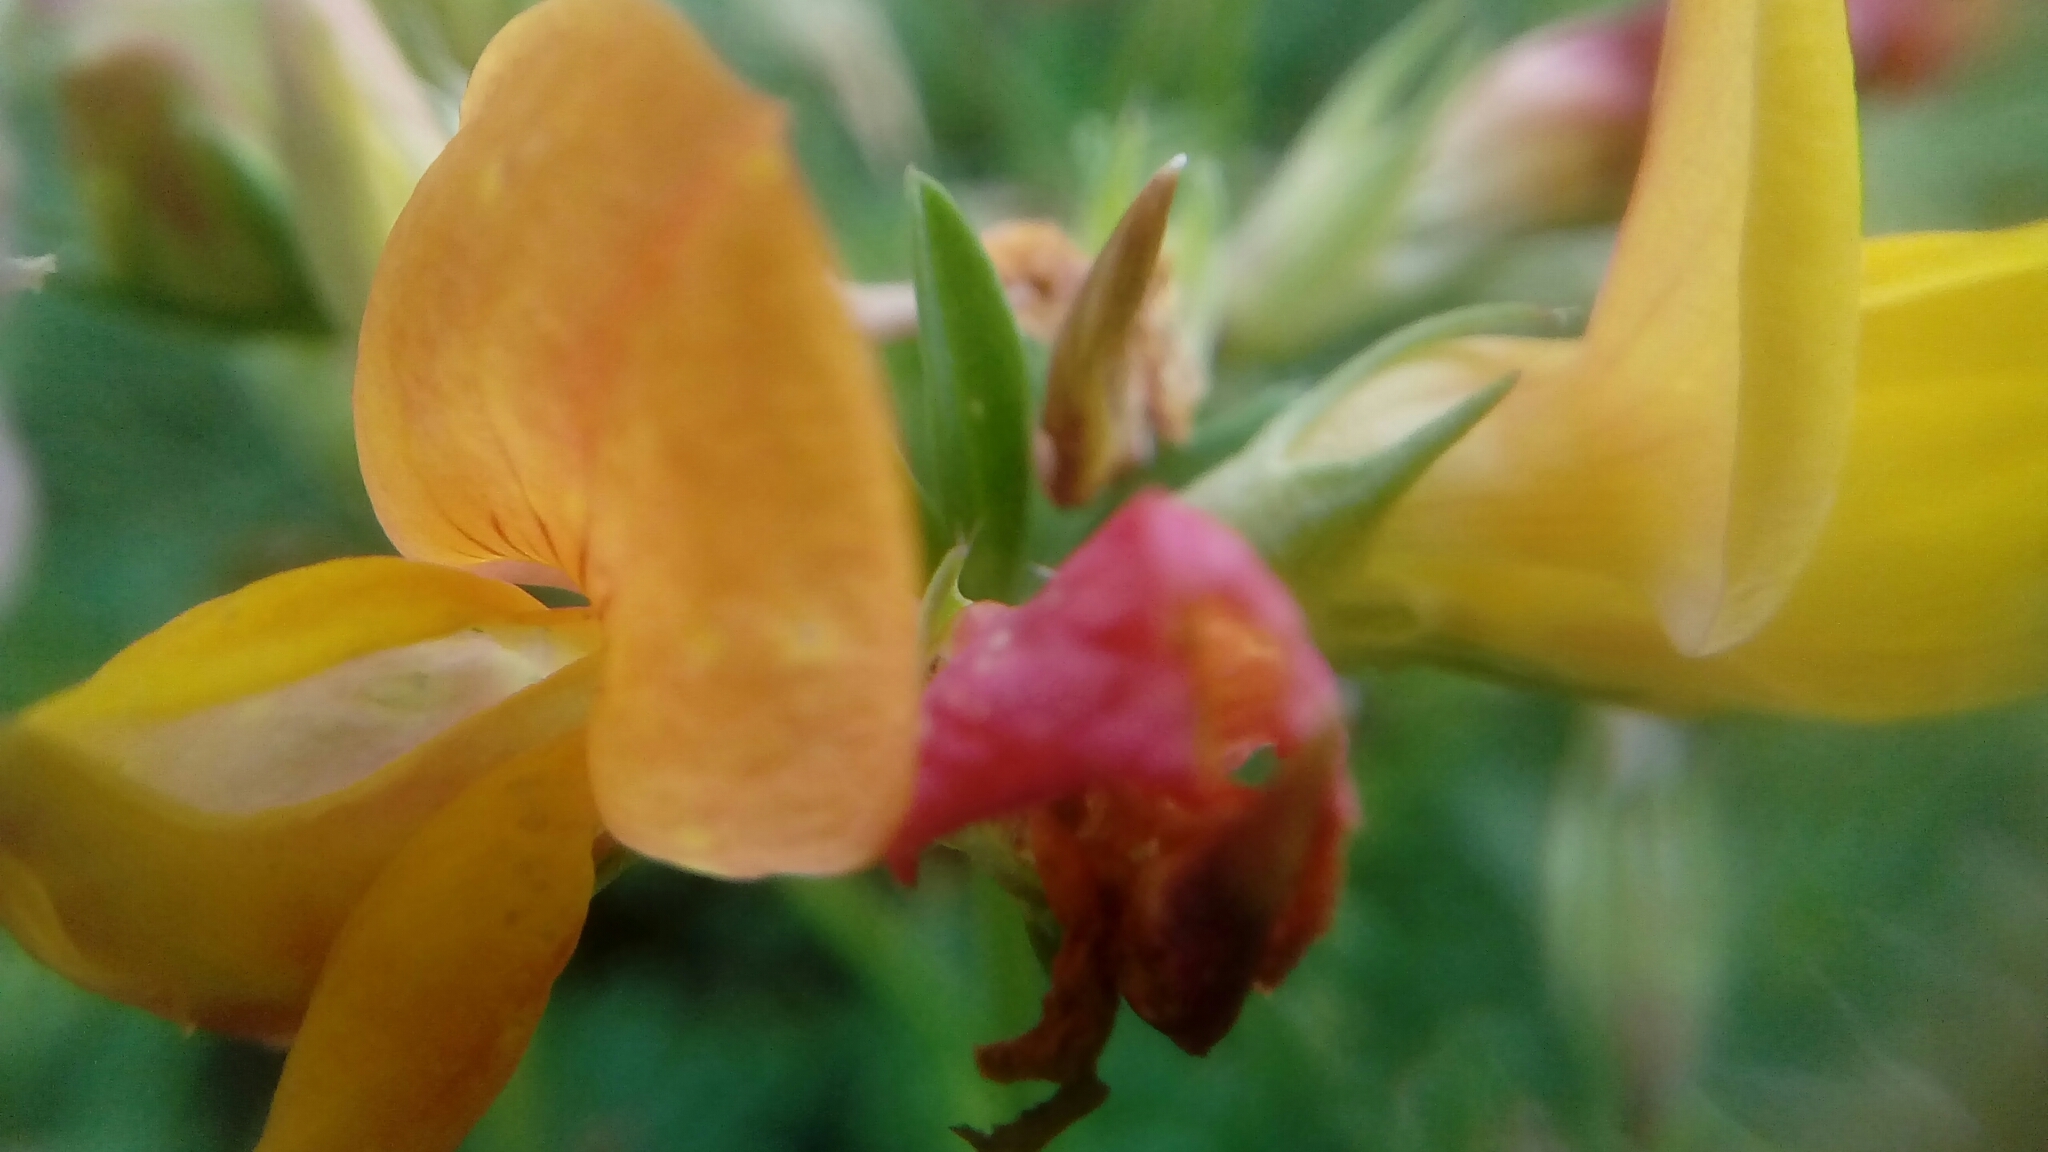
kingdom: Plantae
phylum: Tracheophyta
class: Magnoliopsida
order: Fabales
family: Fabaceae
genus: Lotus
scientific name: Lotus corniculatus
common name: Common bird's-foot-trefoil
